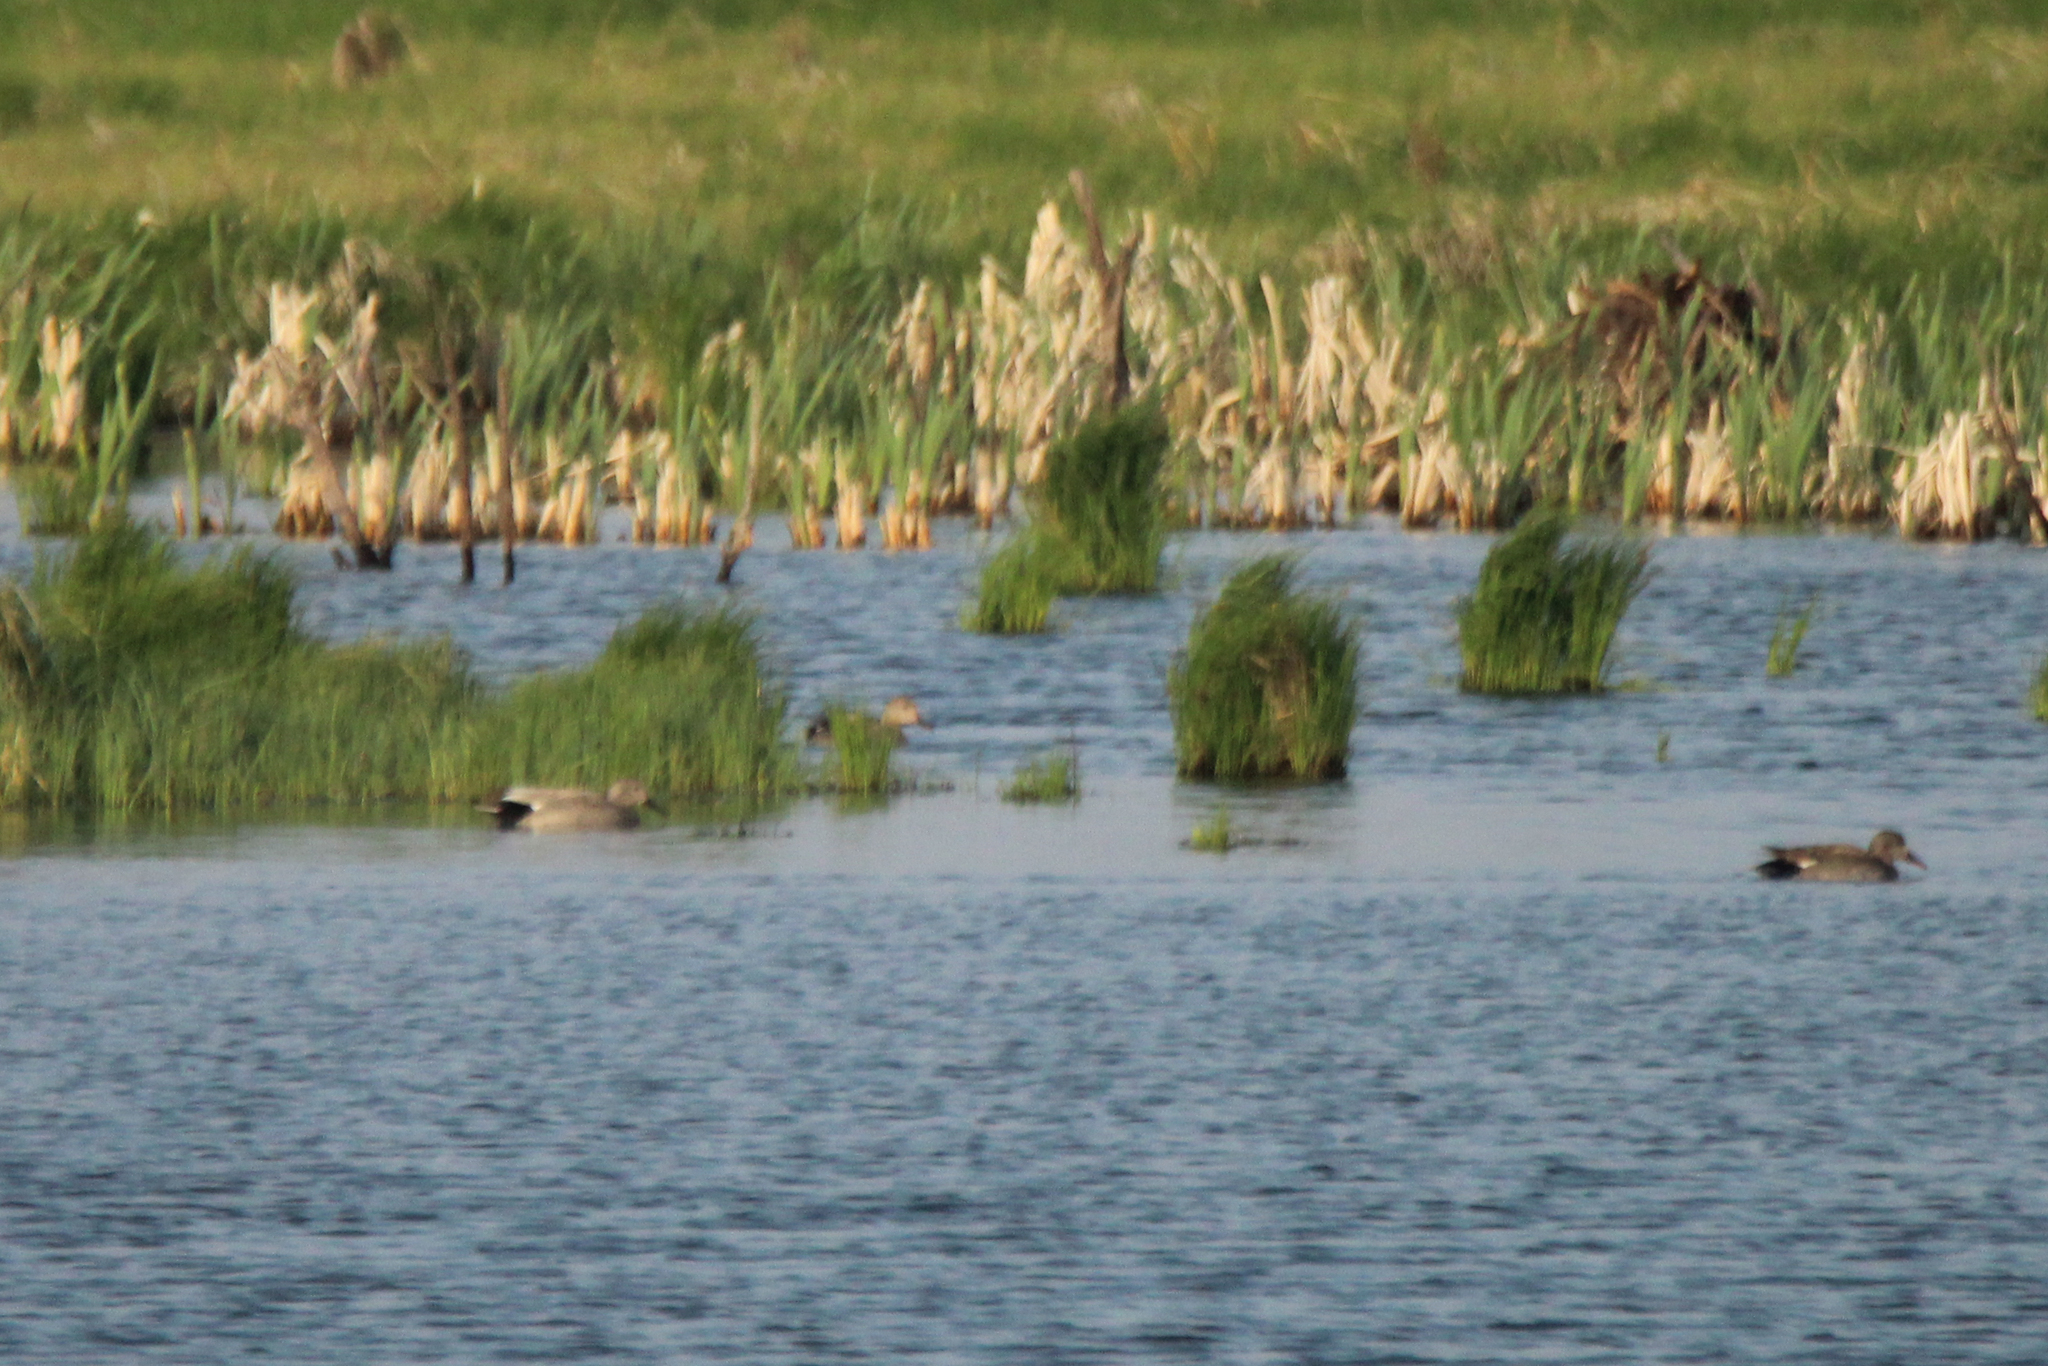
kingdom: Animalia
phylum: Chordata
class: Aves
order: Anseriformes
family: Anatidae
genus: Mareca
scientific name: Mareca strepera
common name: Gadwall
